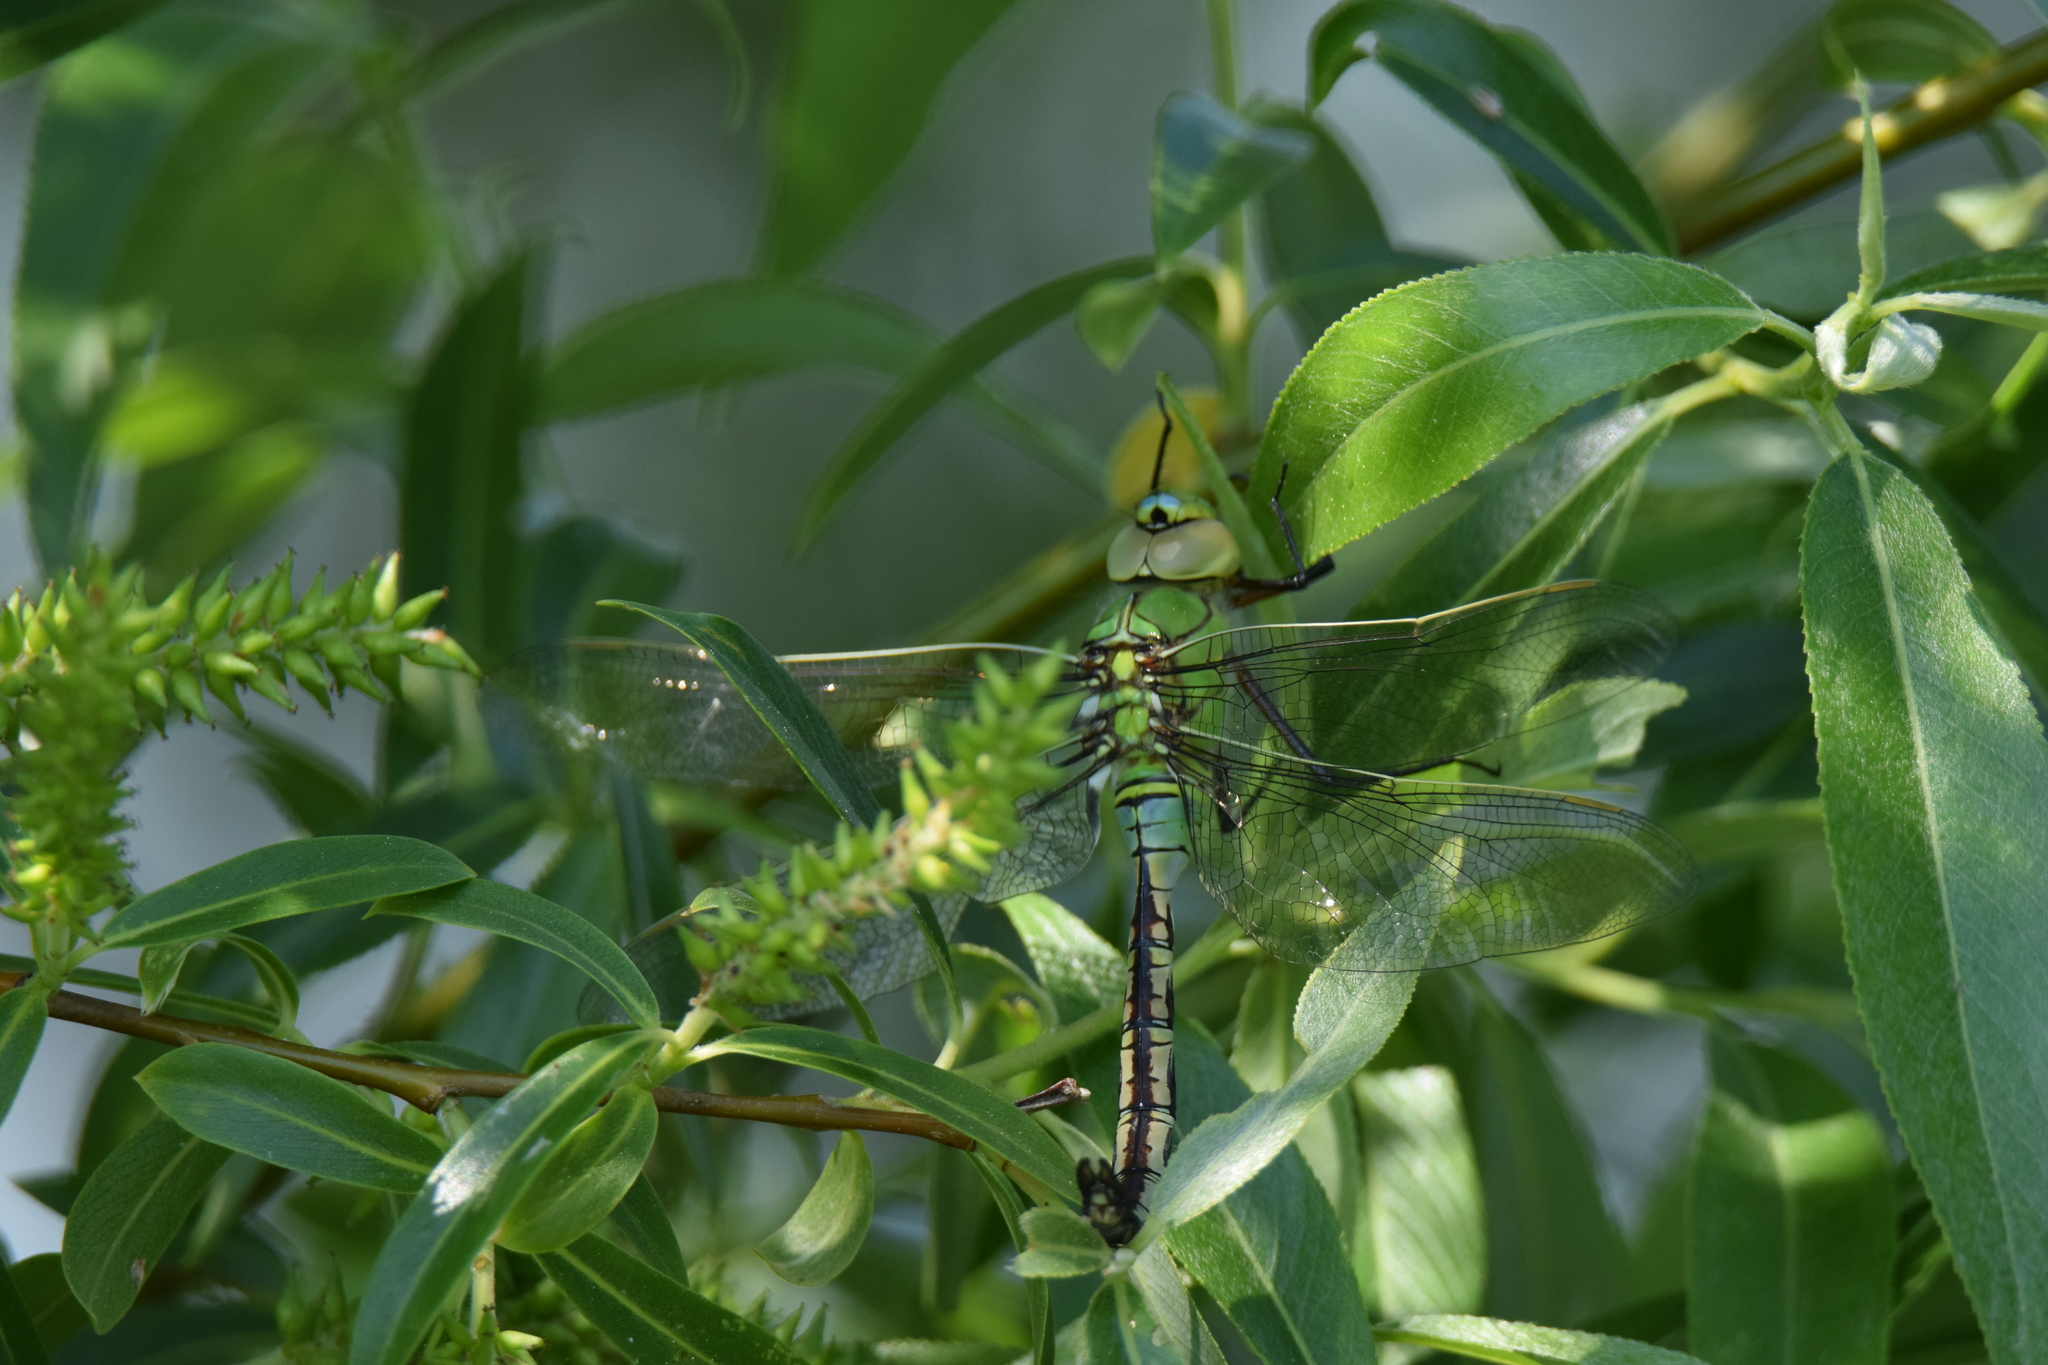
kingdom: Animalia
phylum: Arthropoda
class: Insecta
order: Odonata
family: Aeshnidae
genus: Anax
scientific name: Anax imperator
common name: Emperor dragonfly
